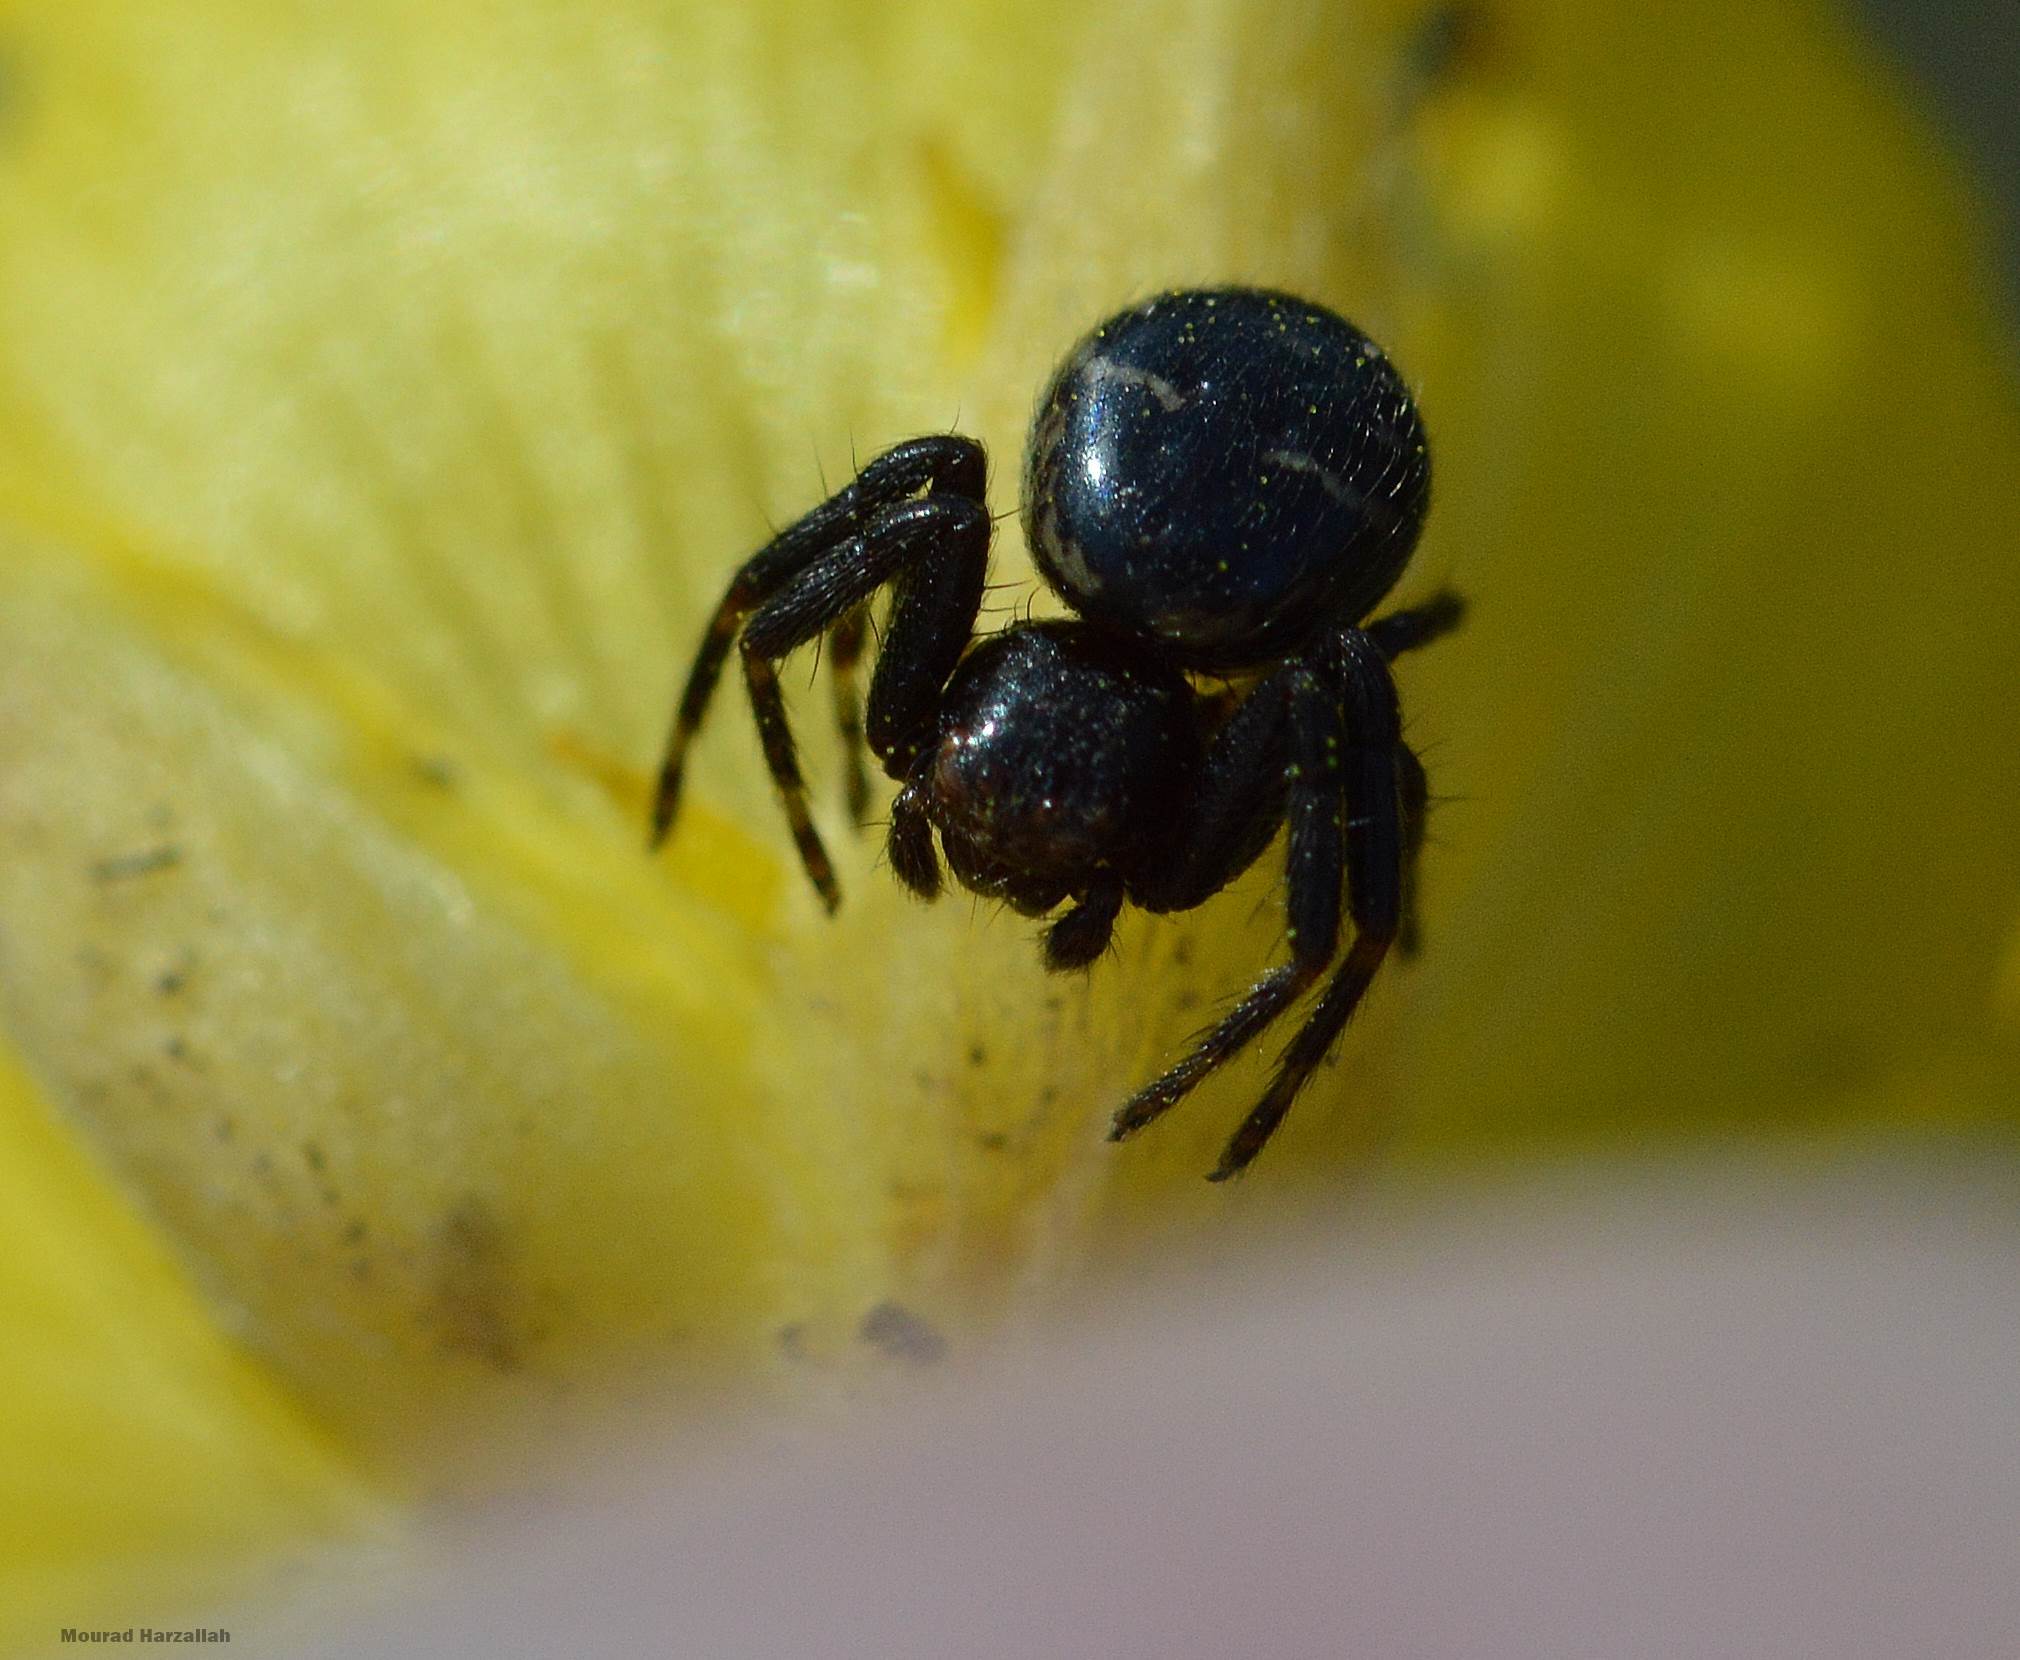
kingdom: Animalia
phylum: Arthropoda
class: Arachnida
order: Araneae
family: Thomisidae
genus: Synema
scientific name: Synema globosum
